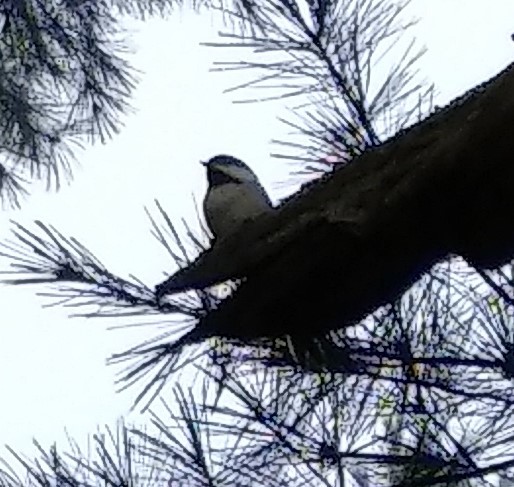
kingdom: Animalia
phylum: Chordata
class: Aves
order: Passeriformes
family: Paridae
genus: Poecile
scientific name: Poecile atricapillus
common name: Black-capped chickadee
